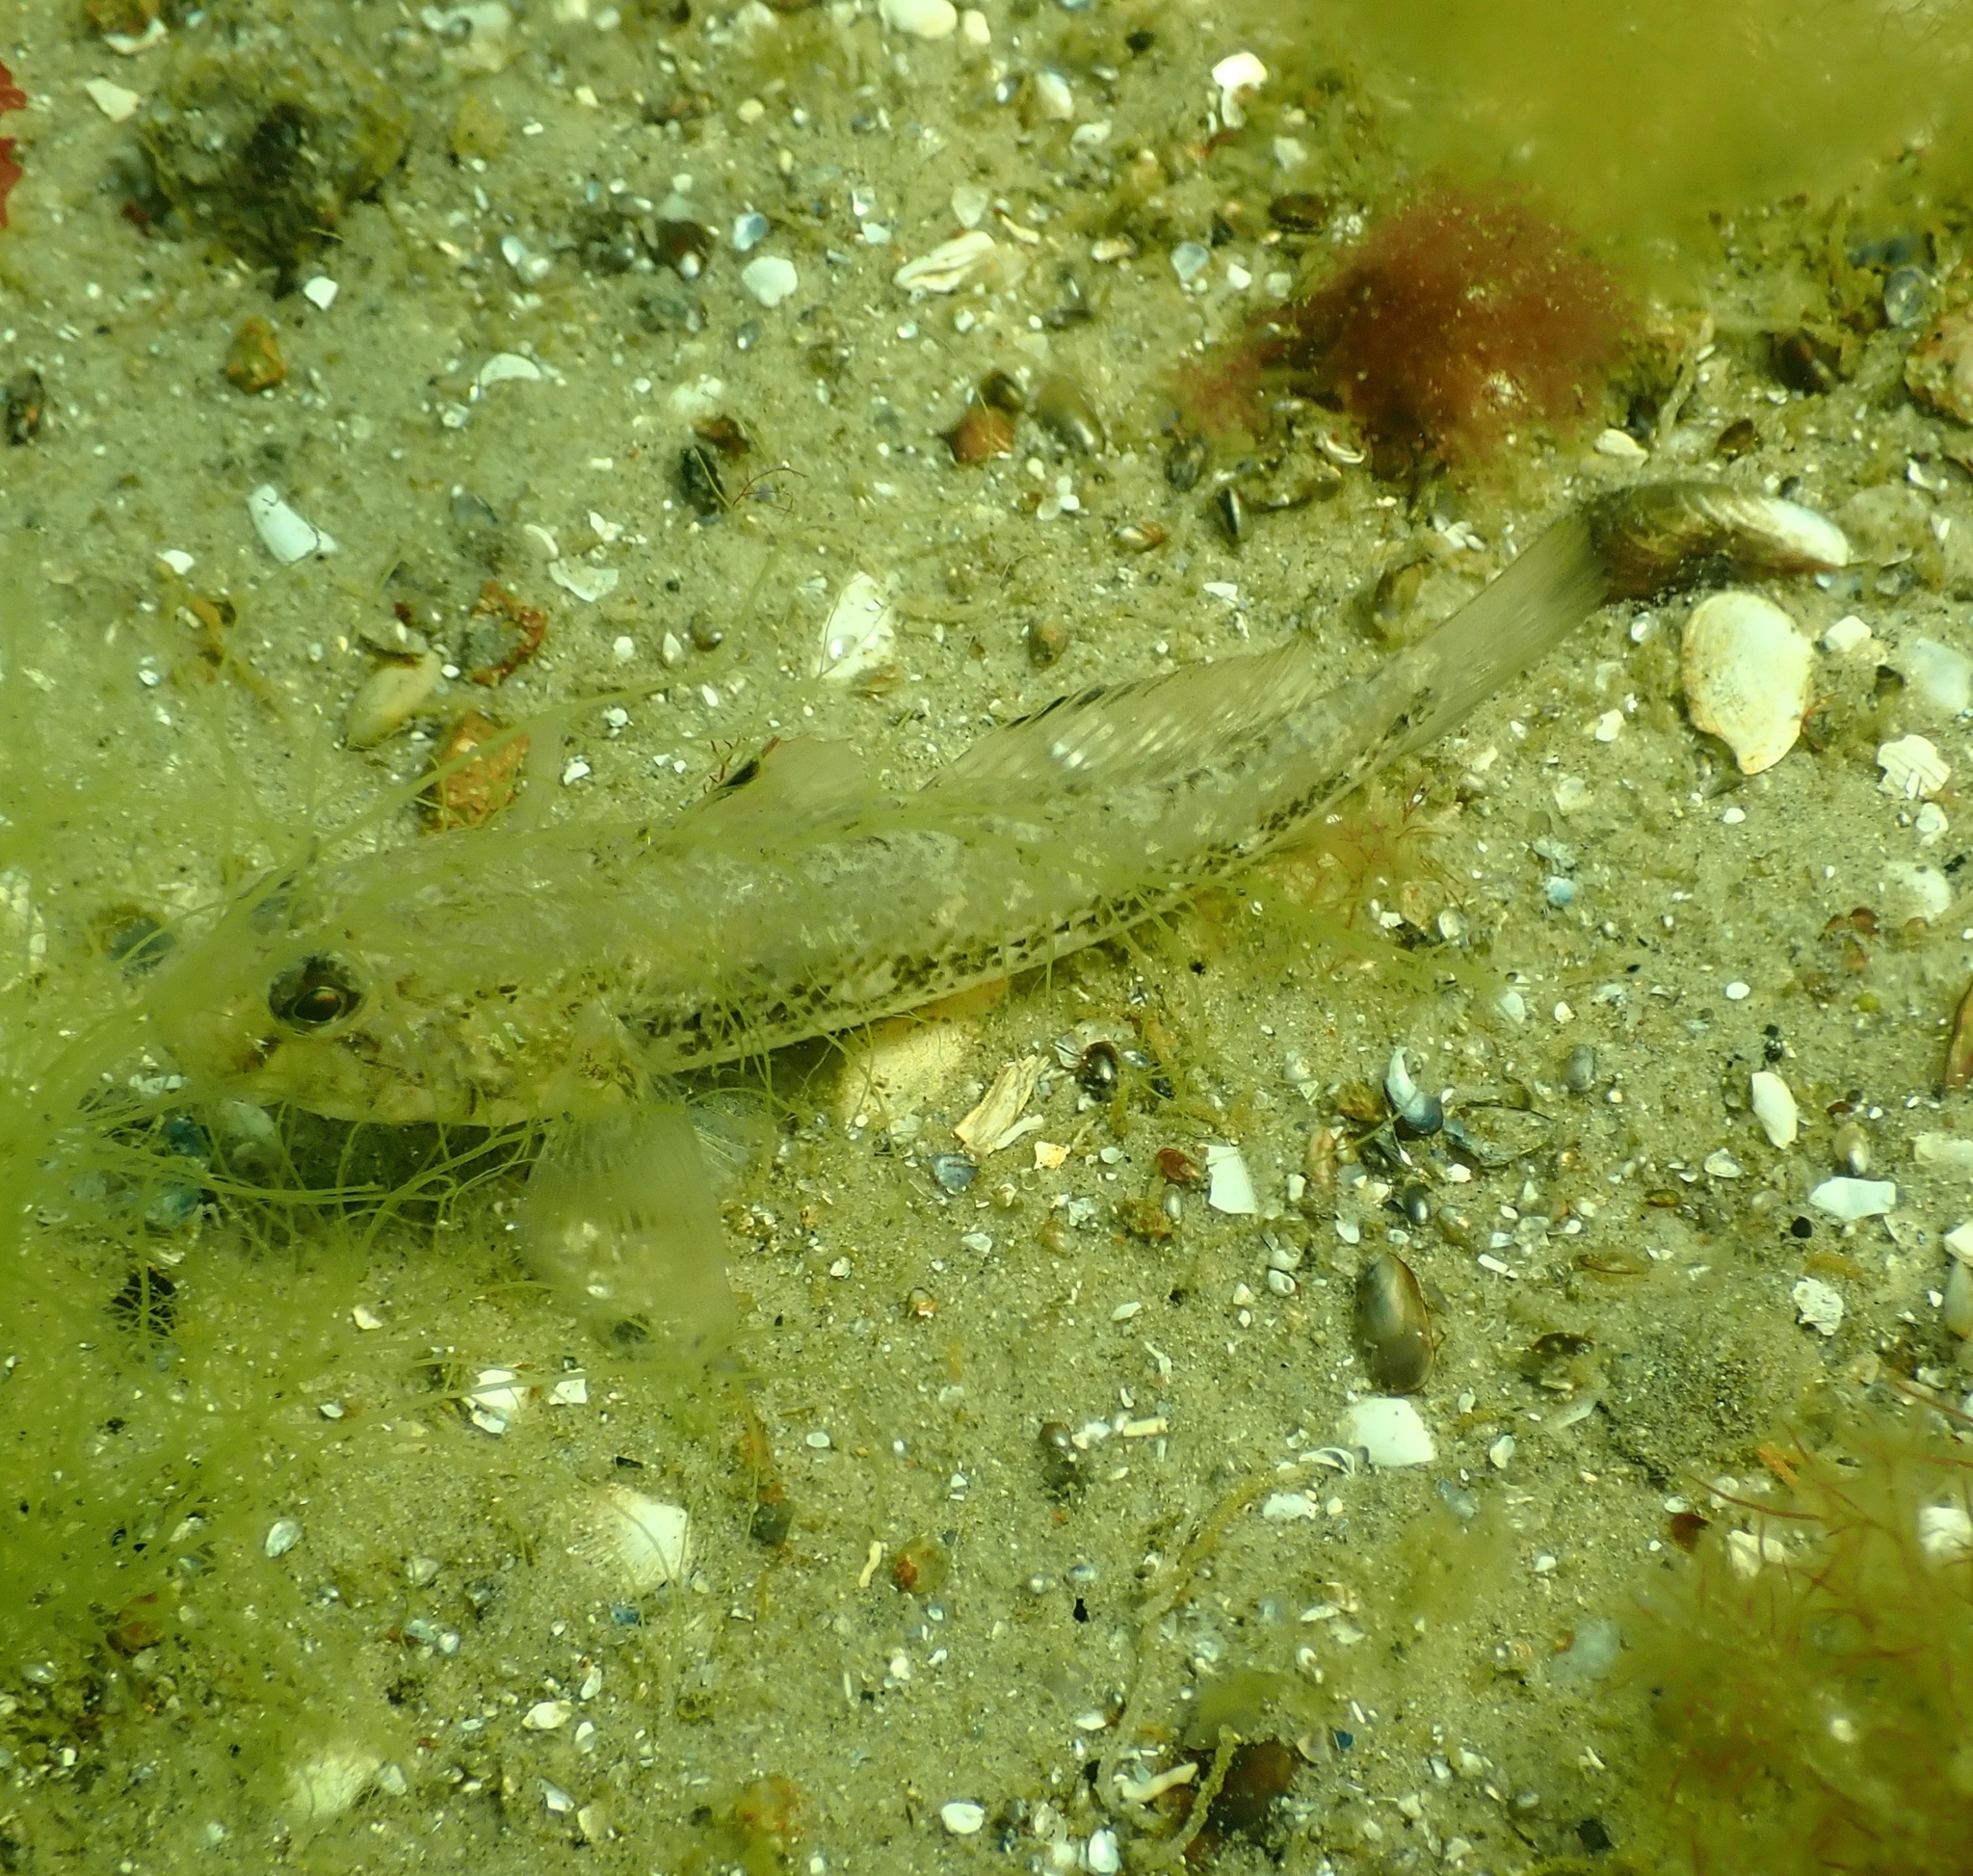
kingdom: Animalia
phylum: Chordata
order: Perciformes
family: Gobiidae
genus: Gobius
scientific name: Gobius niger
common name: Black goby
